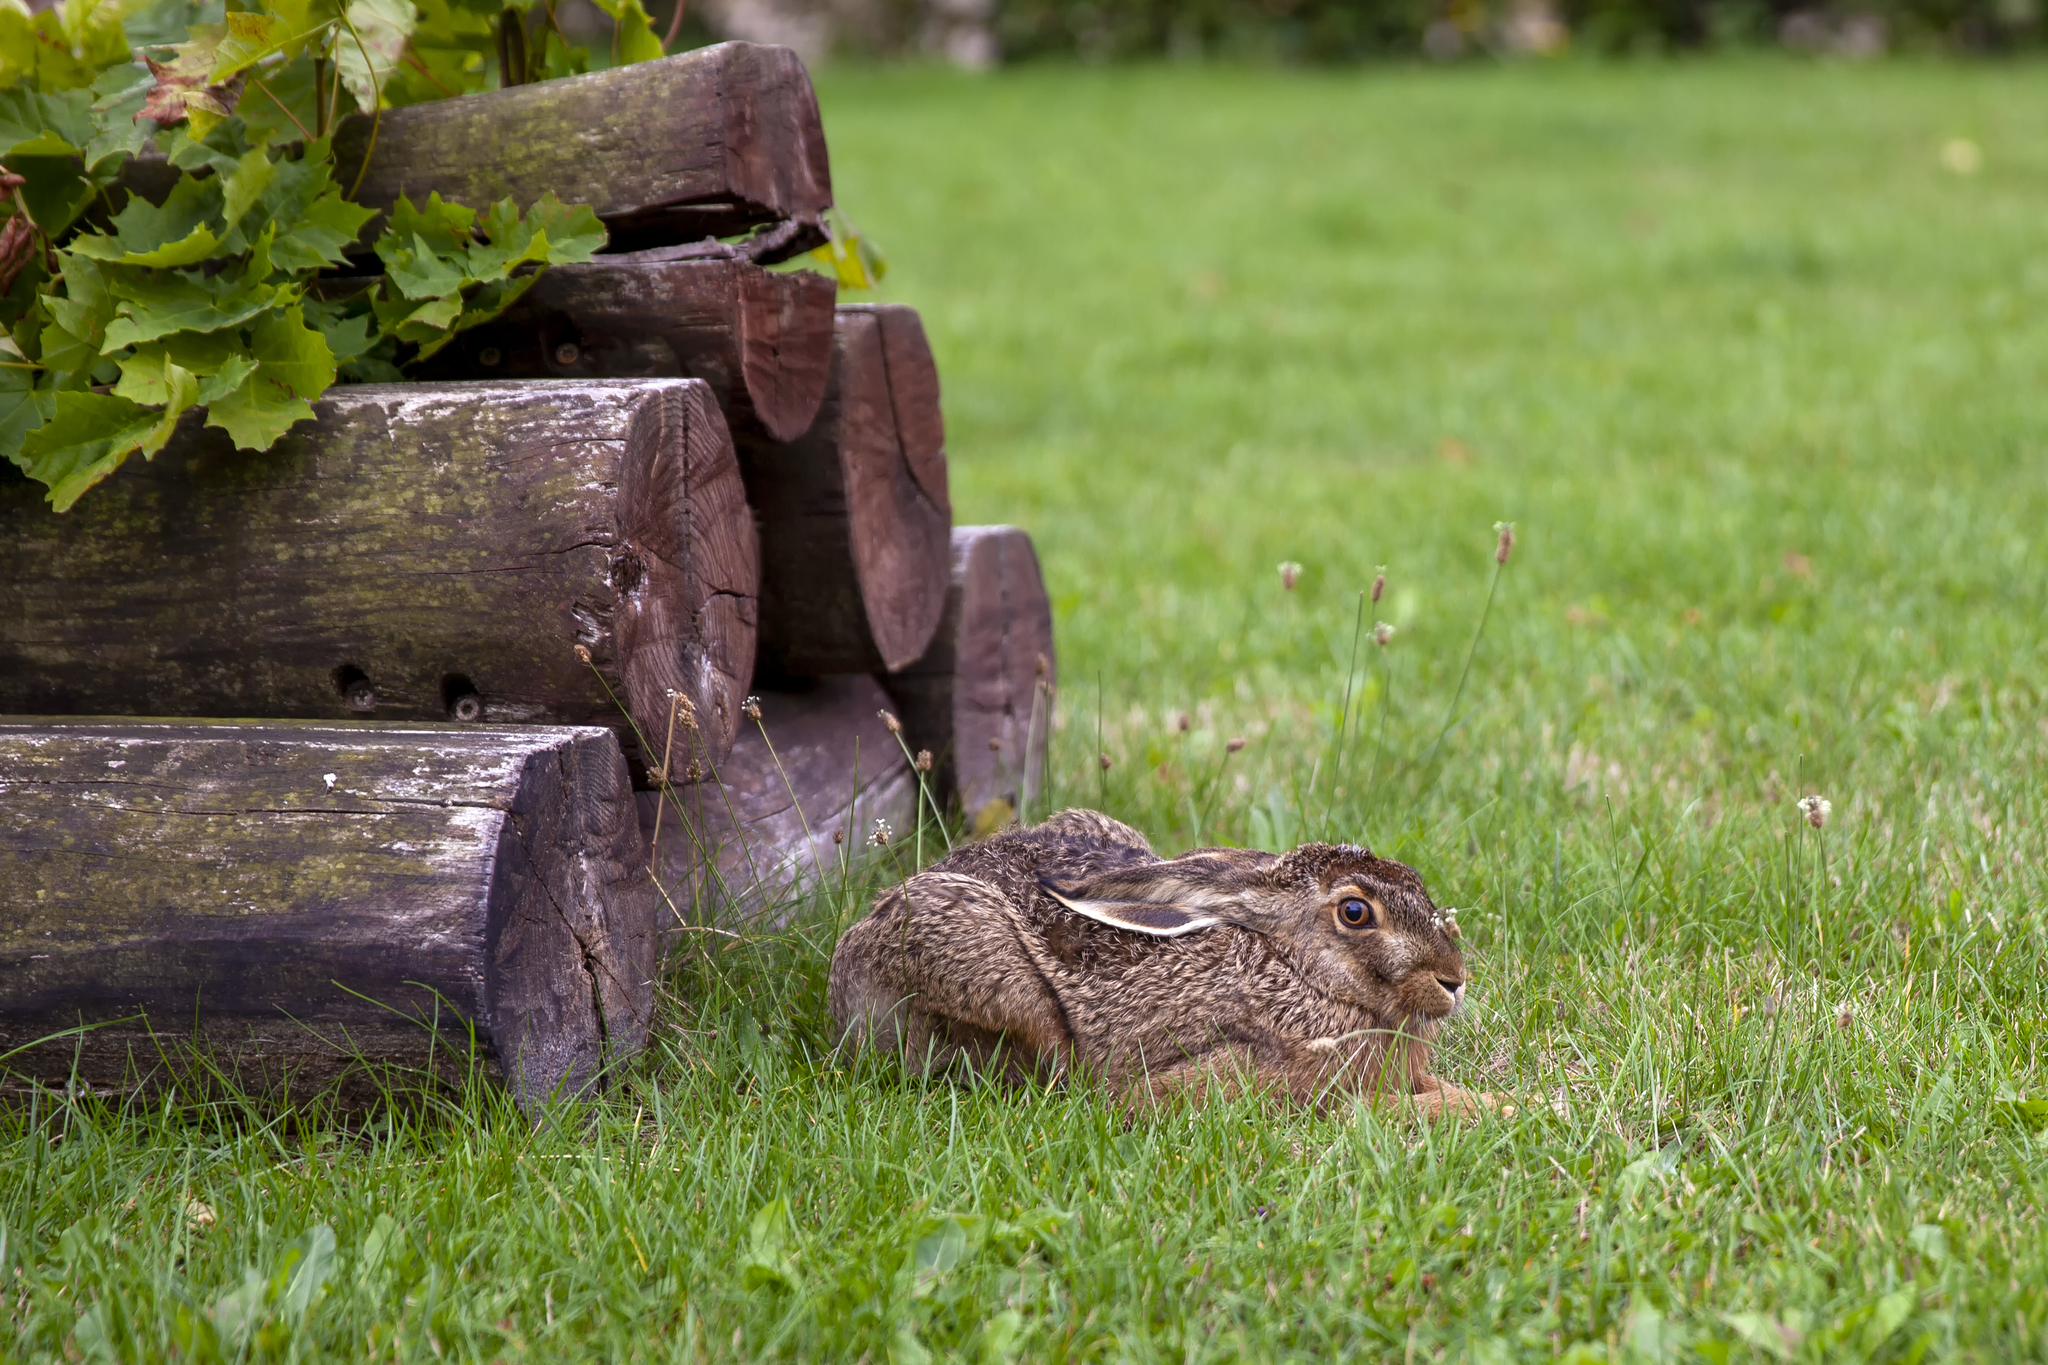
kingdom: Animalia
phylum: Chordata
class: Mammalia
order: Lagomorpha
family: Leporidae
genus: Lepus
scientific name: Lepus europaeus
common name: European hare
